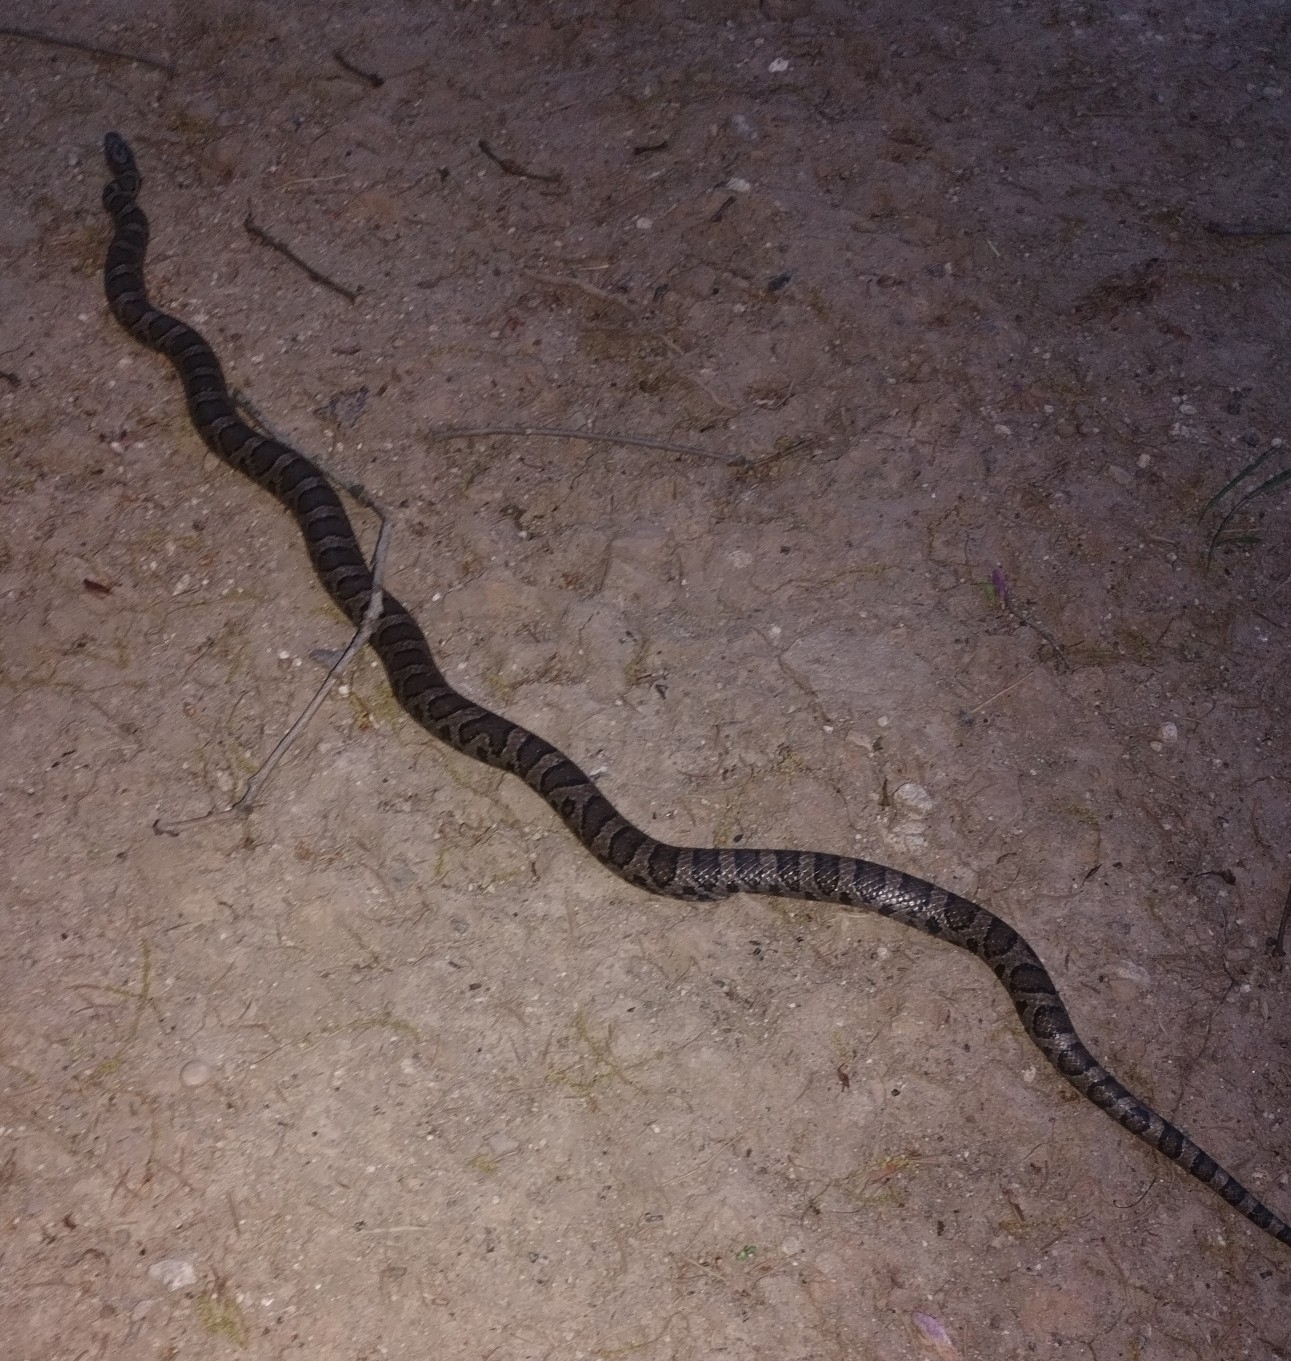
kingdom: Animalia
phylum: Chordata
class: Squamata
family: Colubridae
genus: Lampropeltis
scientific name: Lampropeltis triangulum
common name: Eastern milksnake
